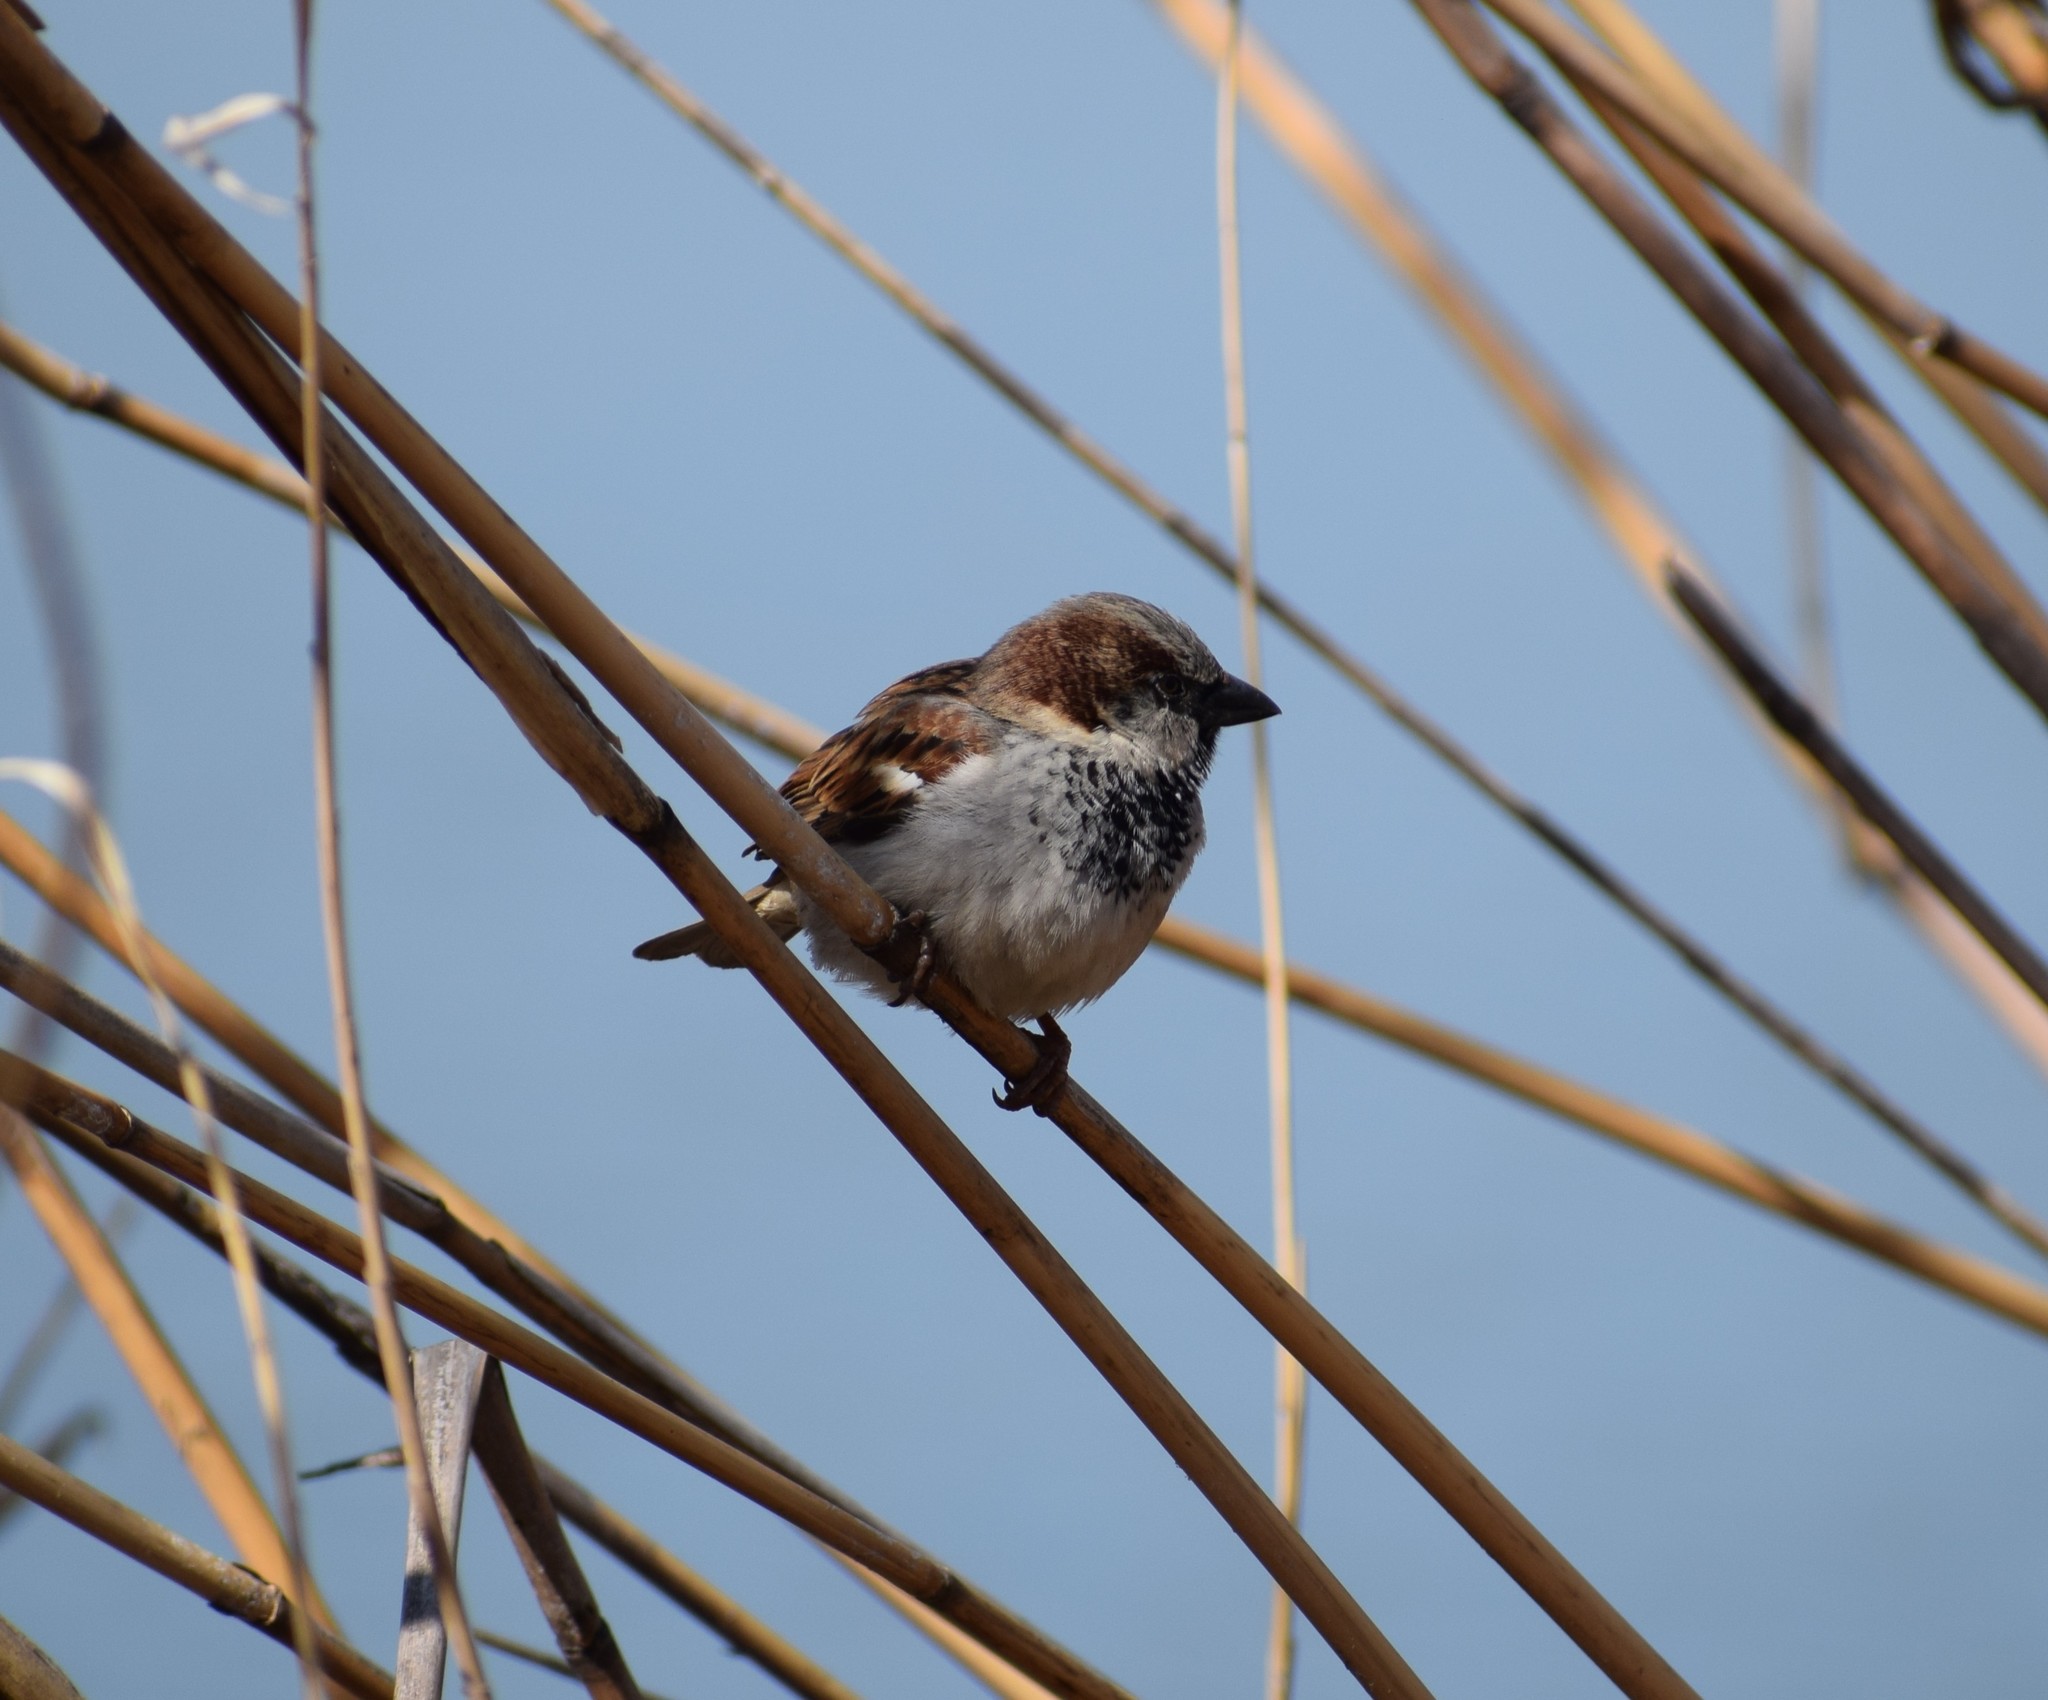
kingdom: Animalia
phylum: Chordata
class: Aves
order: Passeriformes
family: Passeridae
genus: Passer
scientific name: Passer domesticus
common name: House sparrow
